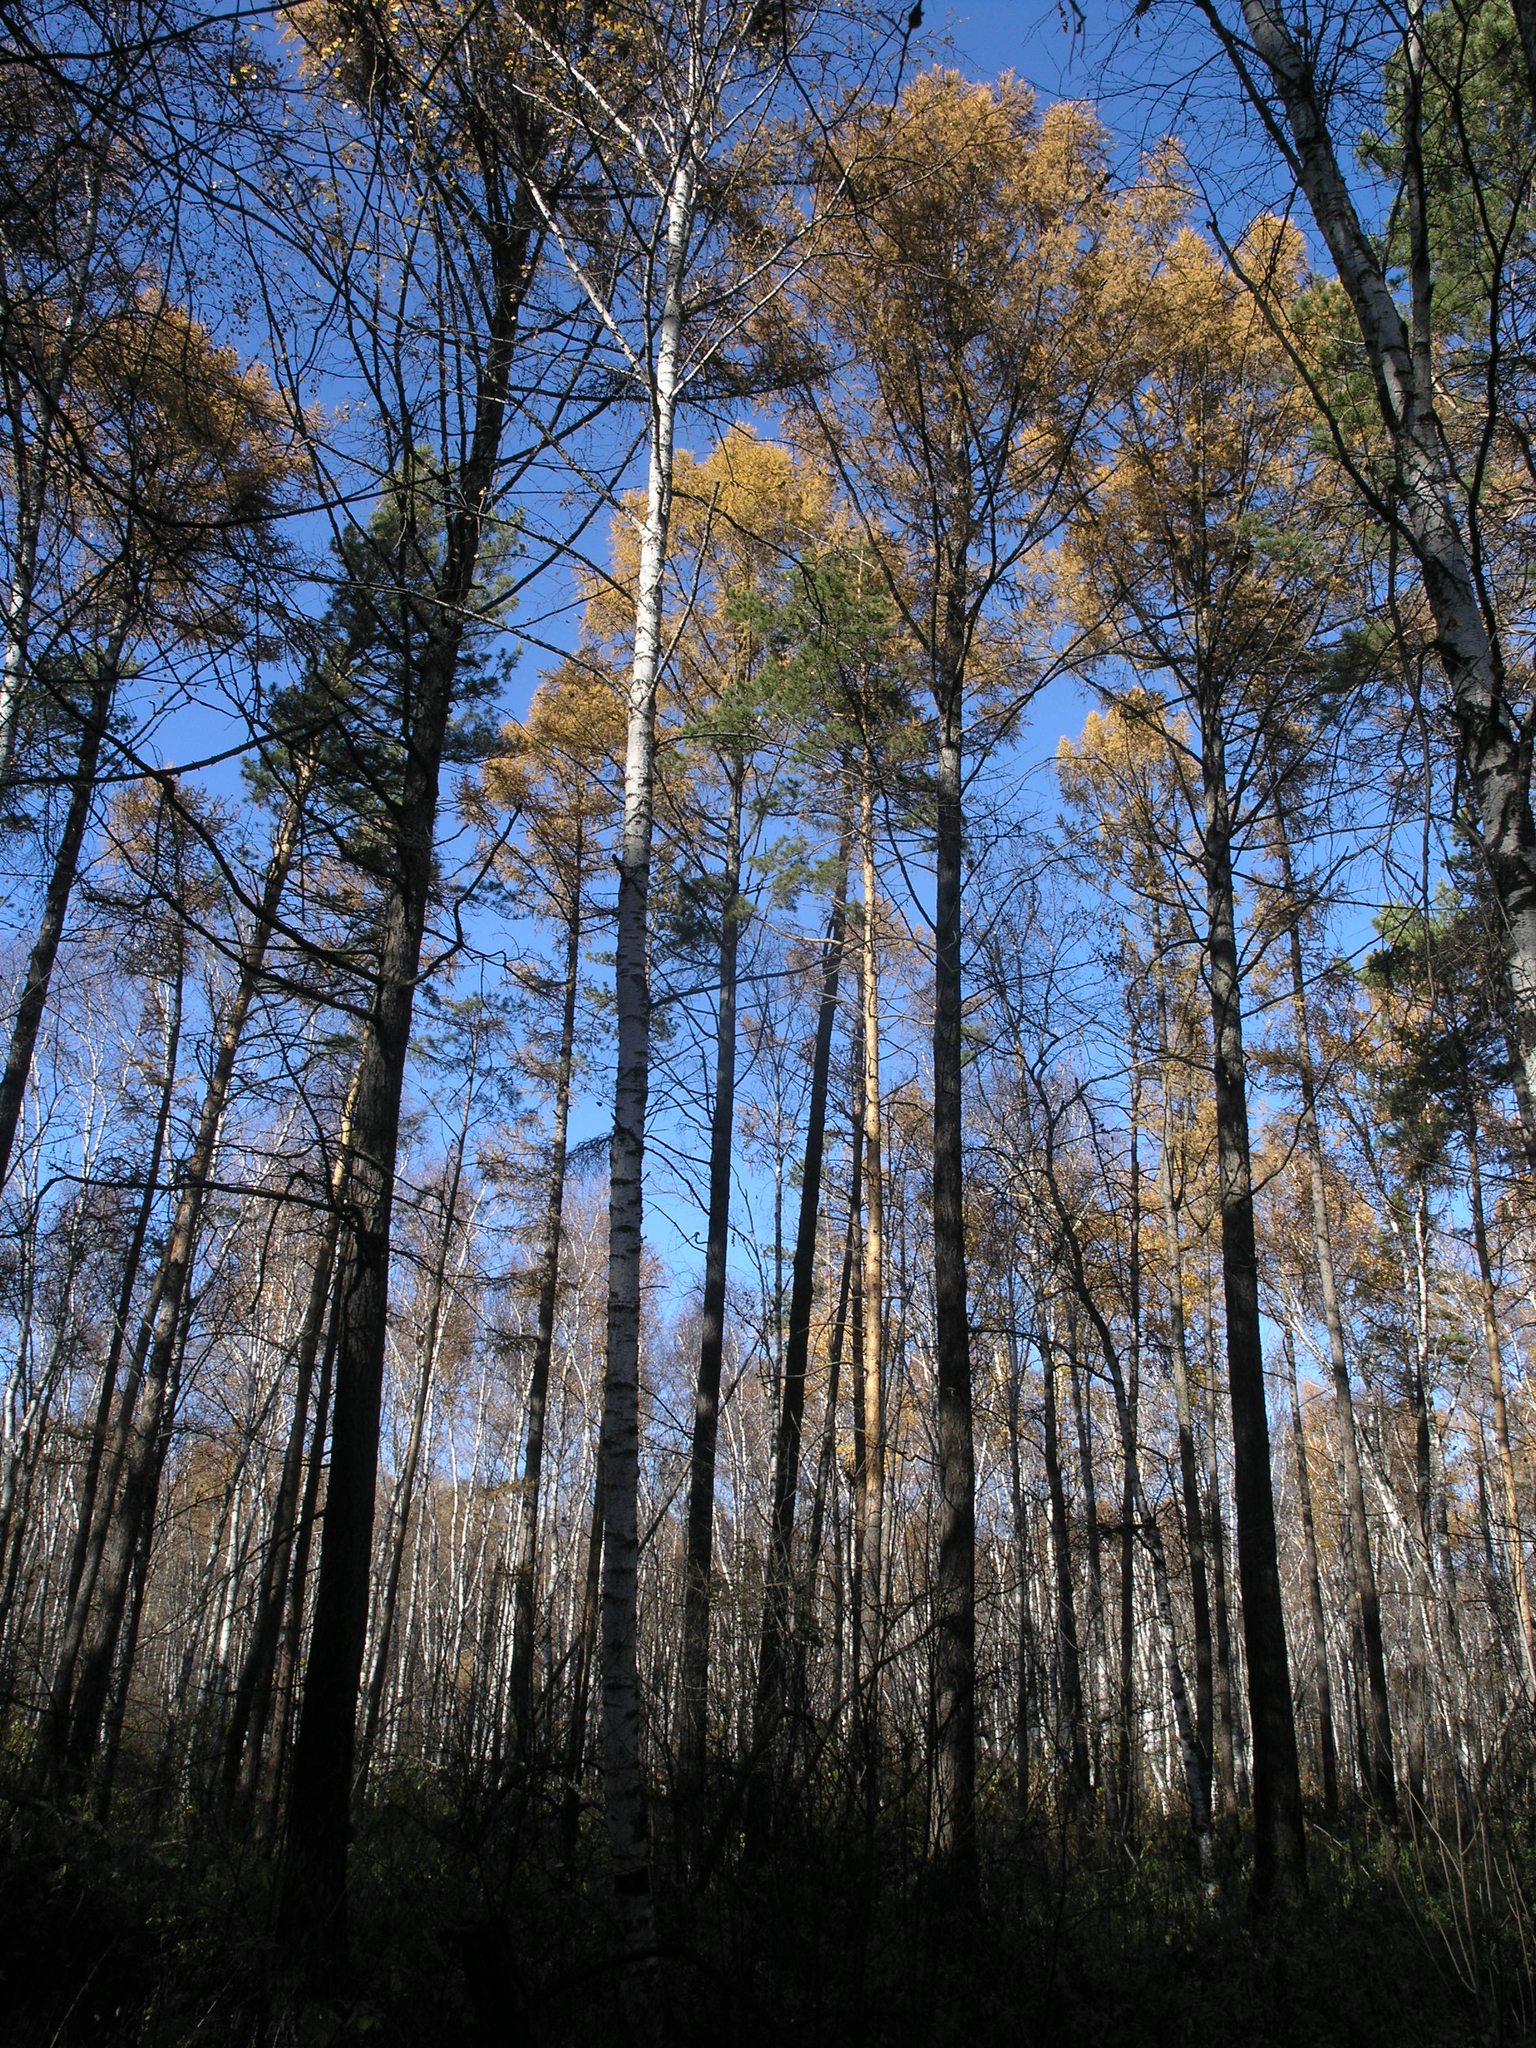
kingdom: Plantae
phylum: Tracheophyta
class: Pinopsida
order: Pinales
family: Pinaceae
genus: Larix
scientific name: Larix sibirica
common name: Siberian larch
